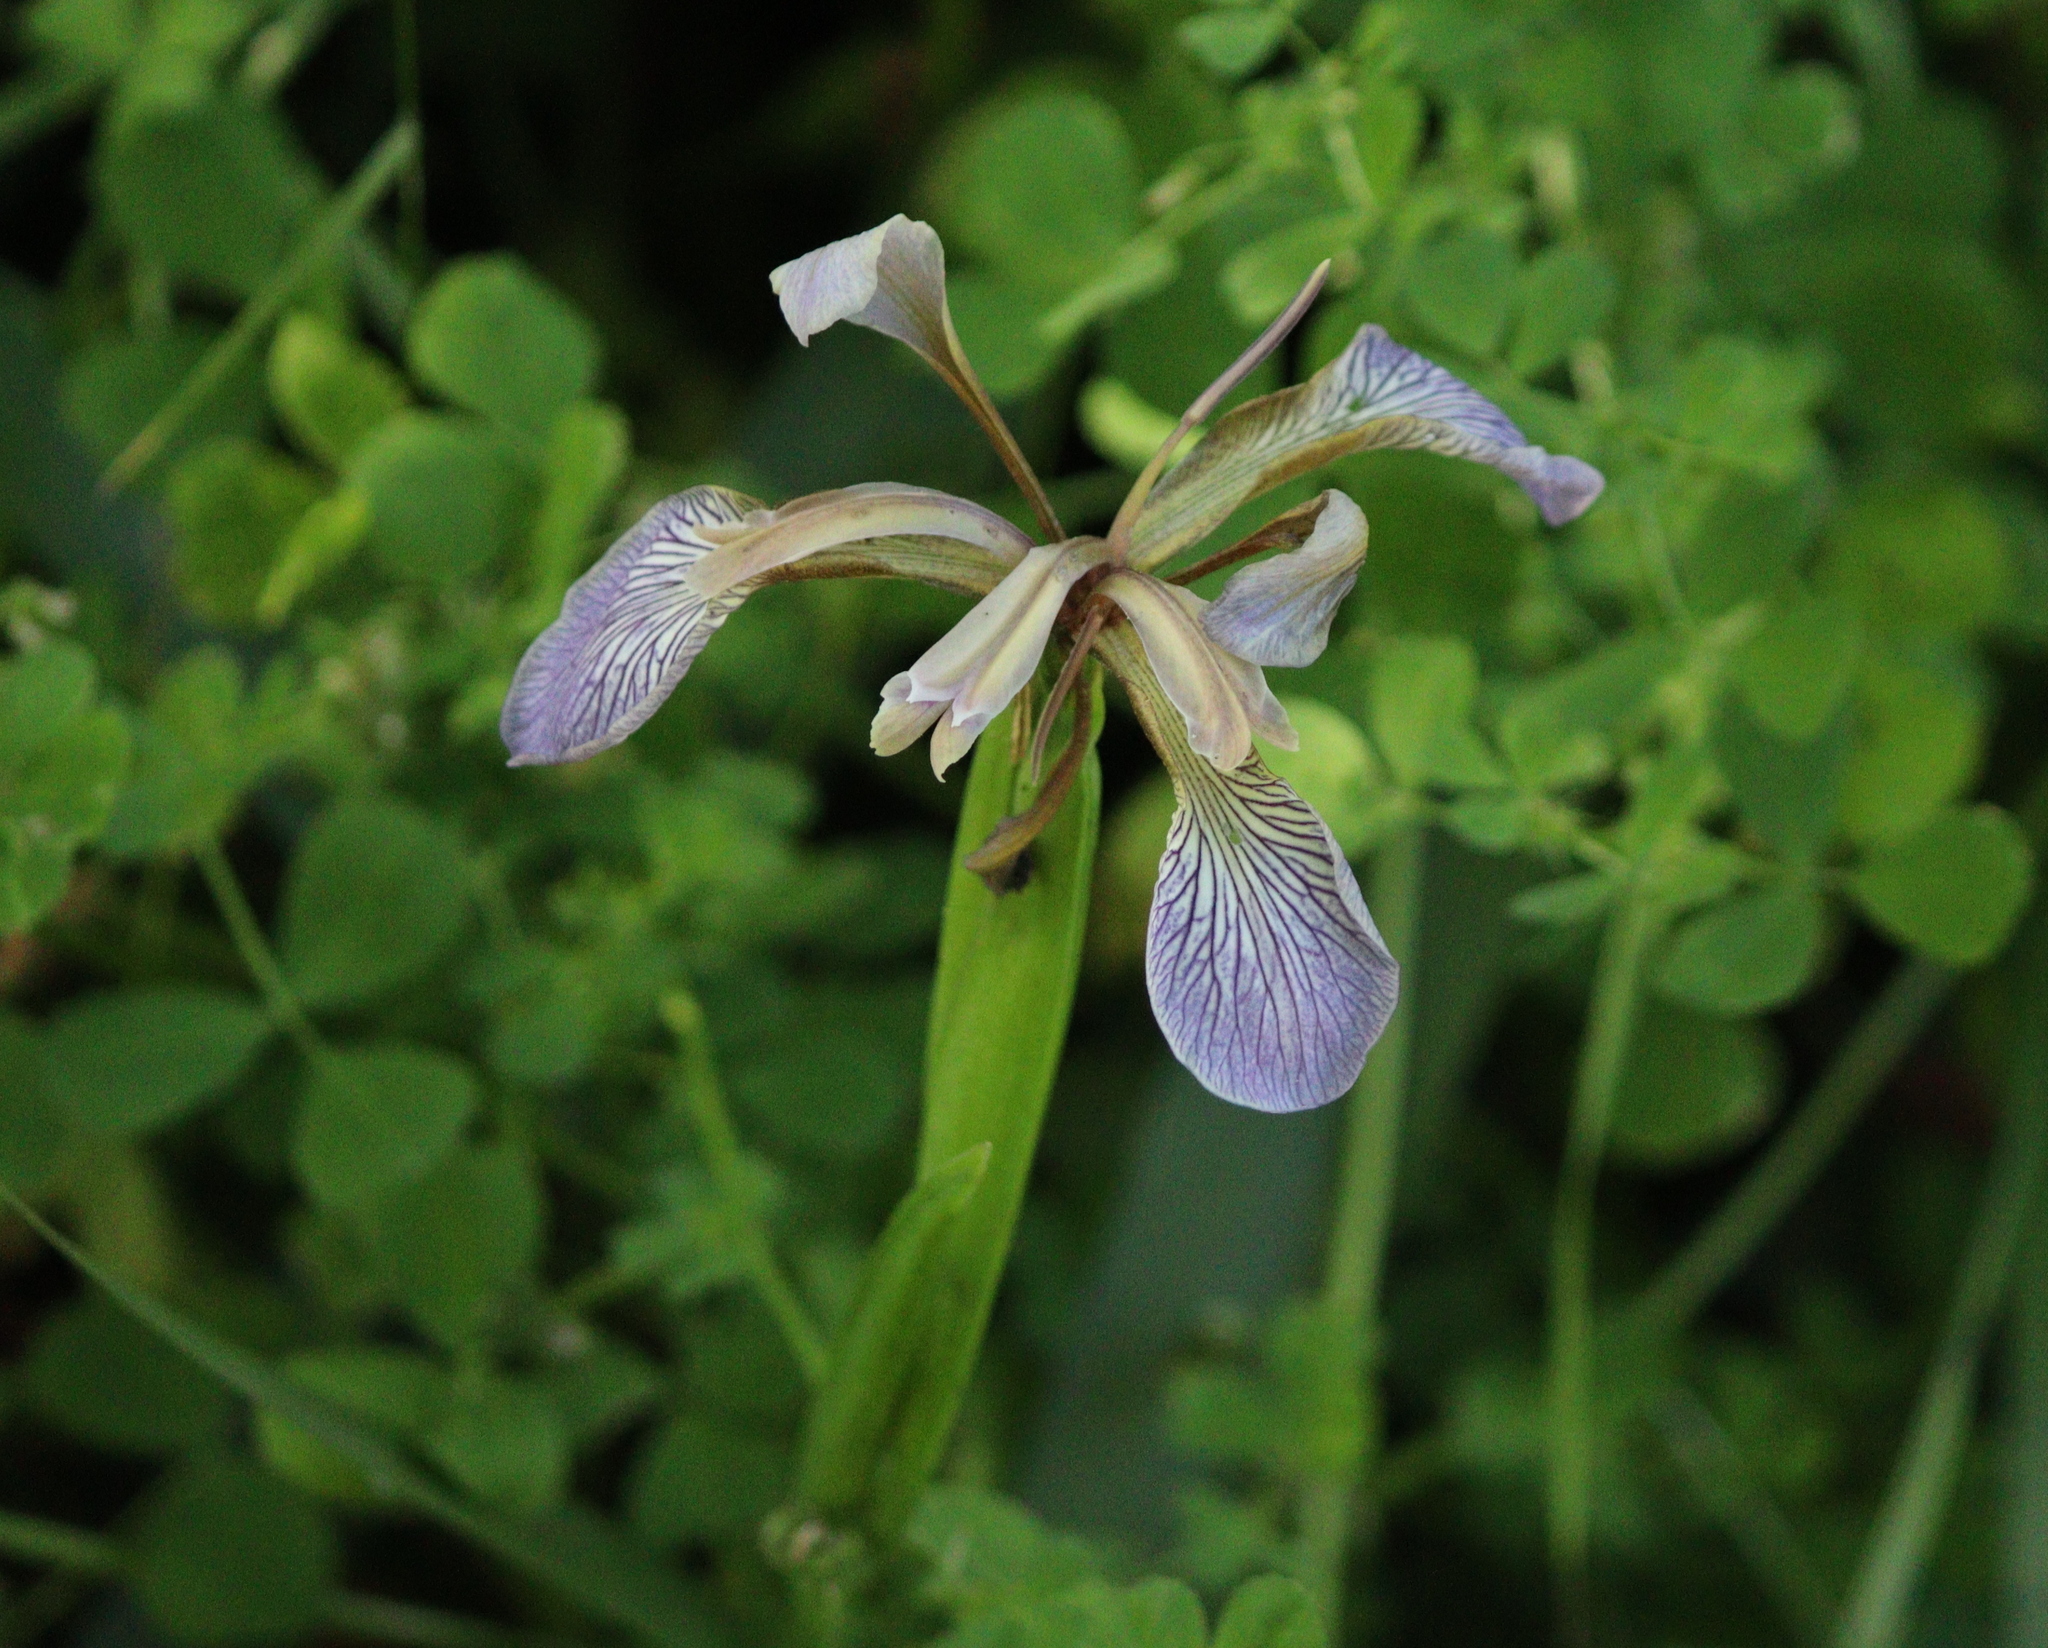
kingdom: Plantae
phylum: Tracheophyta
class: Liliopsida
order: Asparagales
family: Iridaceae
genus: Iris
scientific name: Iris foetidissima
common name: Stinking iris
